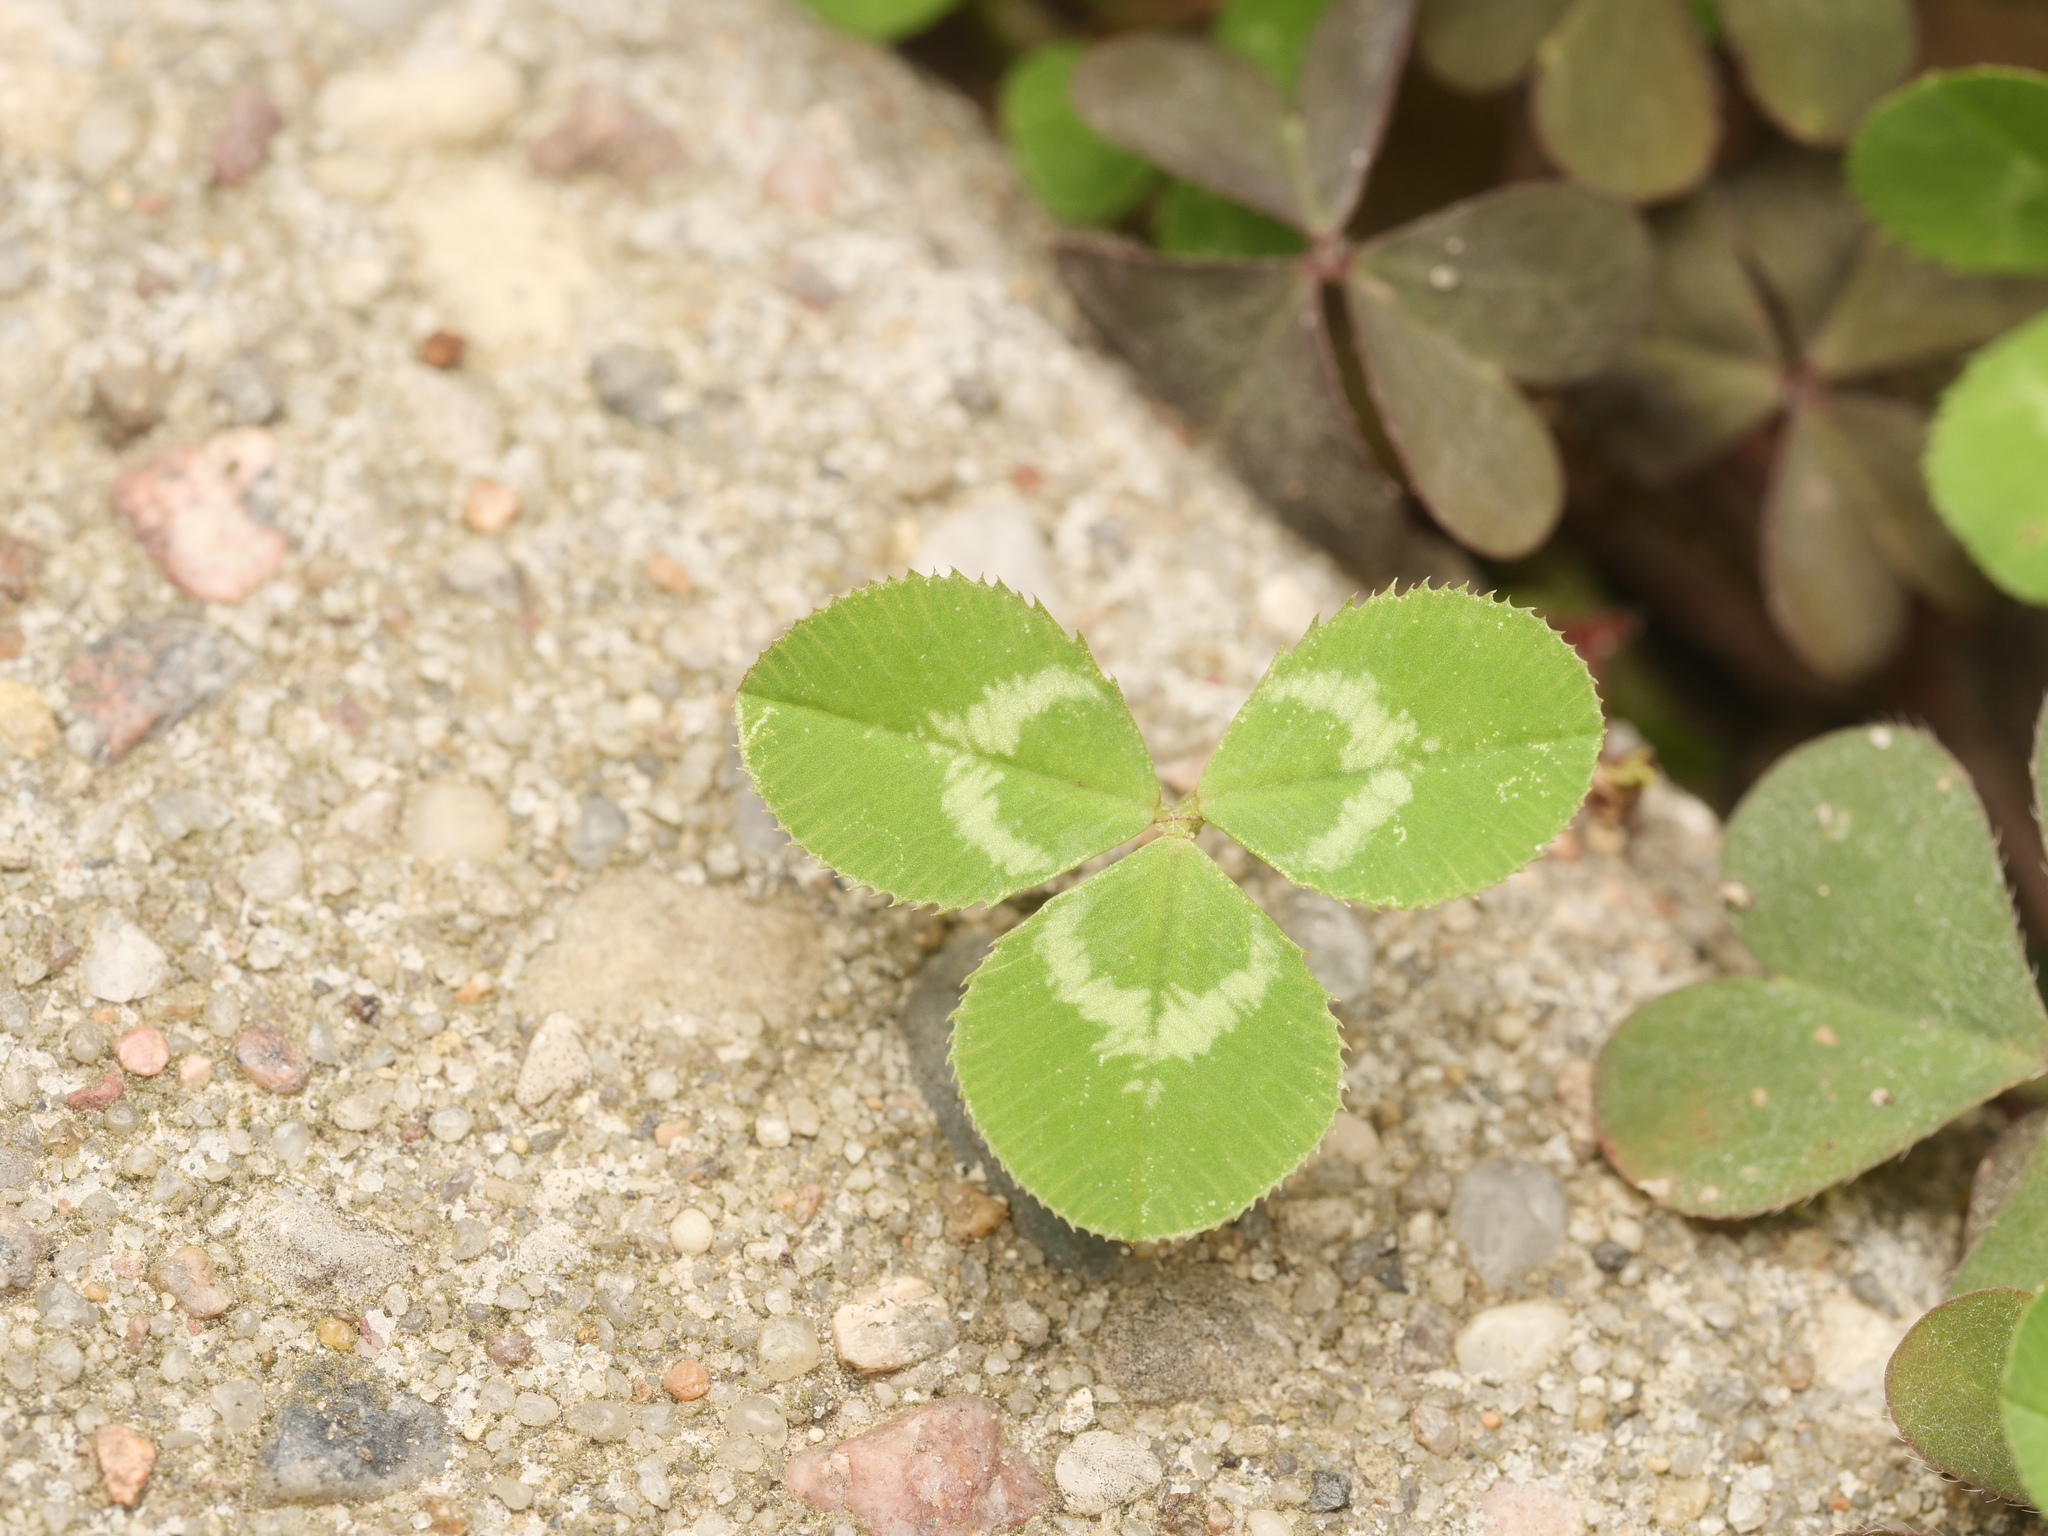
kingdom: Plantae
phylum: Tracheophyta
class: Magnoliopsida
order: Fabales
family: Fabaceae
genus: Trifolium
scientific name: Trifolium repens
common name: White clover
